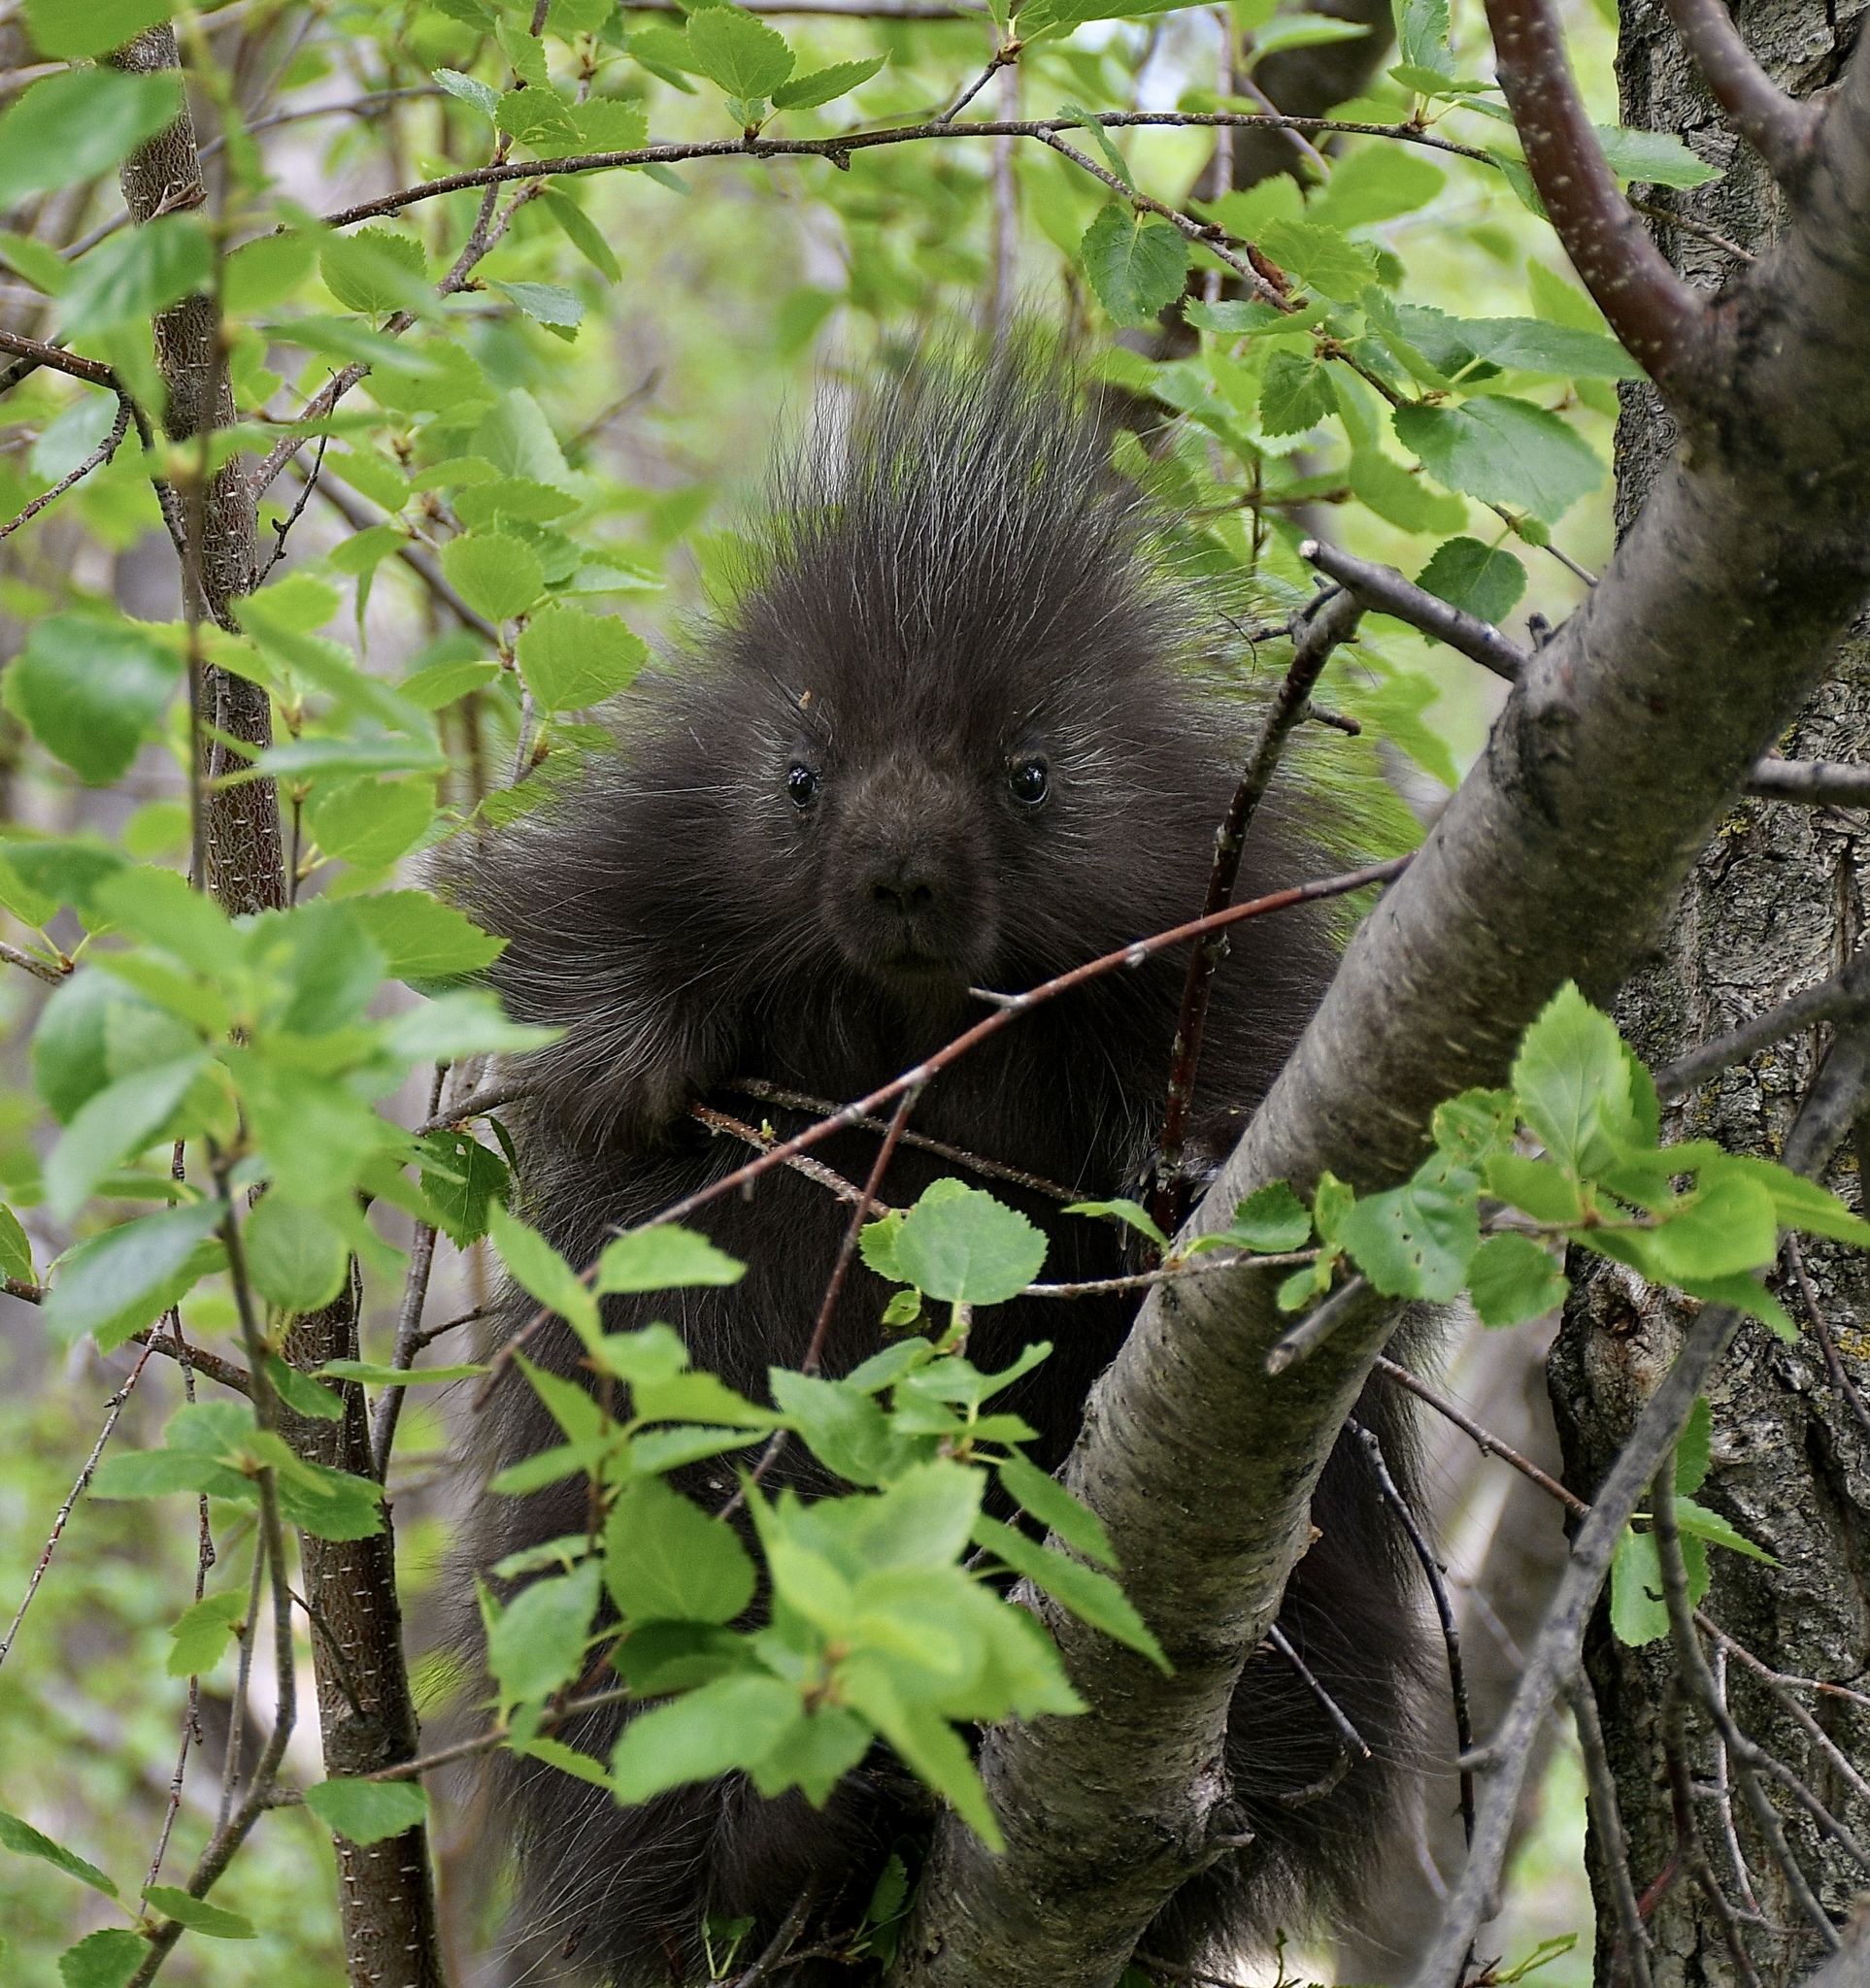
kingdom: Animalia
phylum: Chordata
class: Mammalia
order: Rodentia
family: Erethizontidae
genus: Erethizon
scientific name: Erethizon dorsatus
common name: North american porcupine
